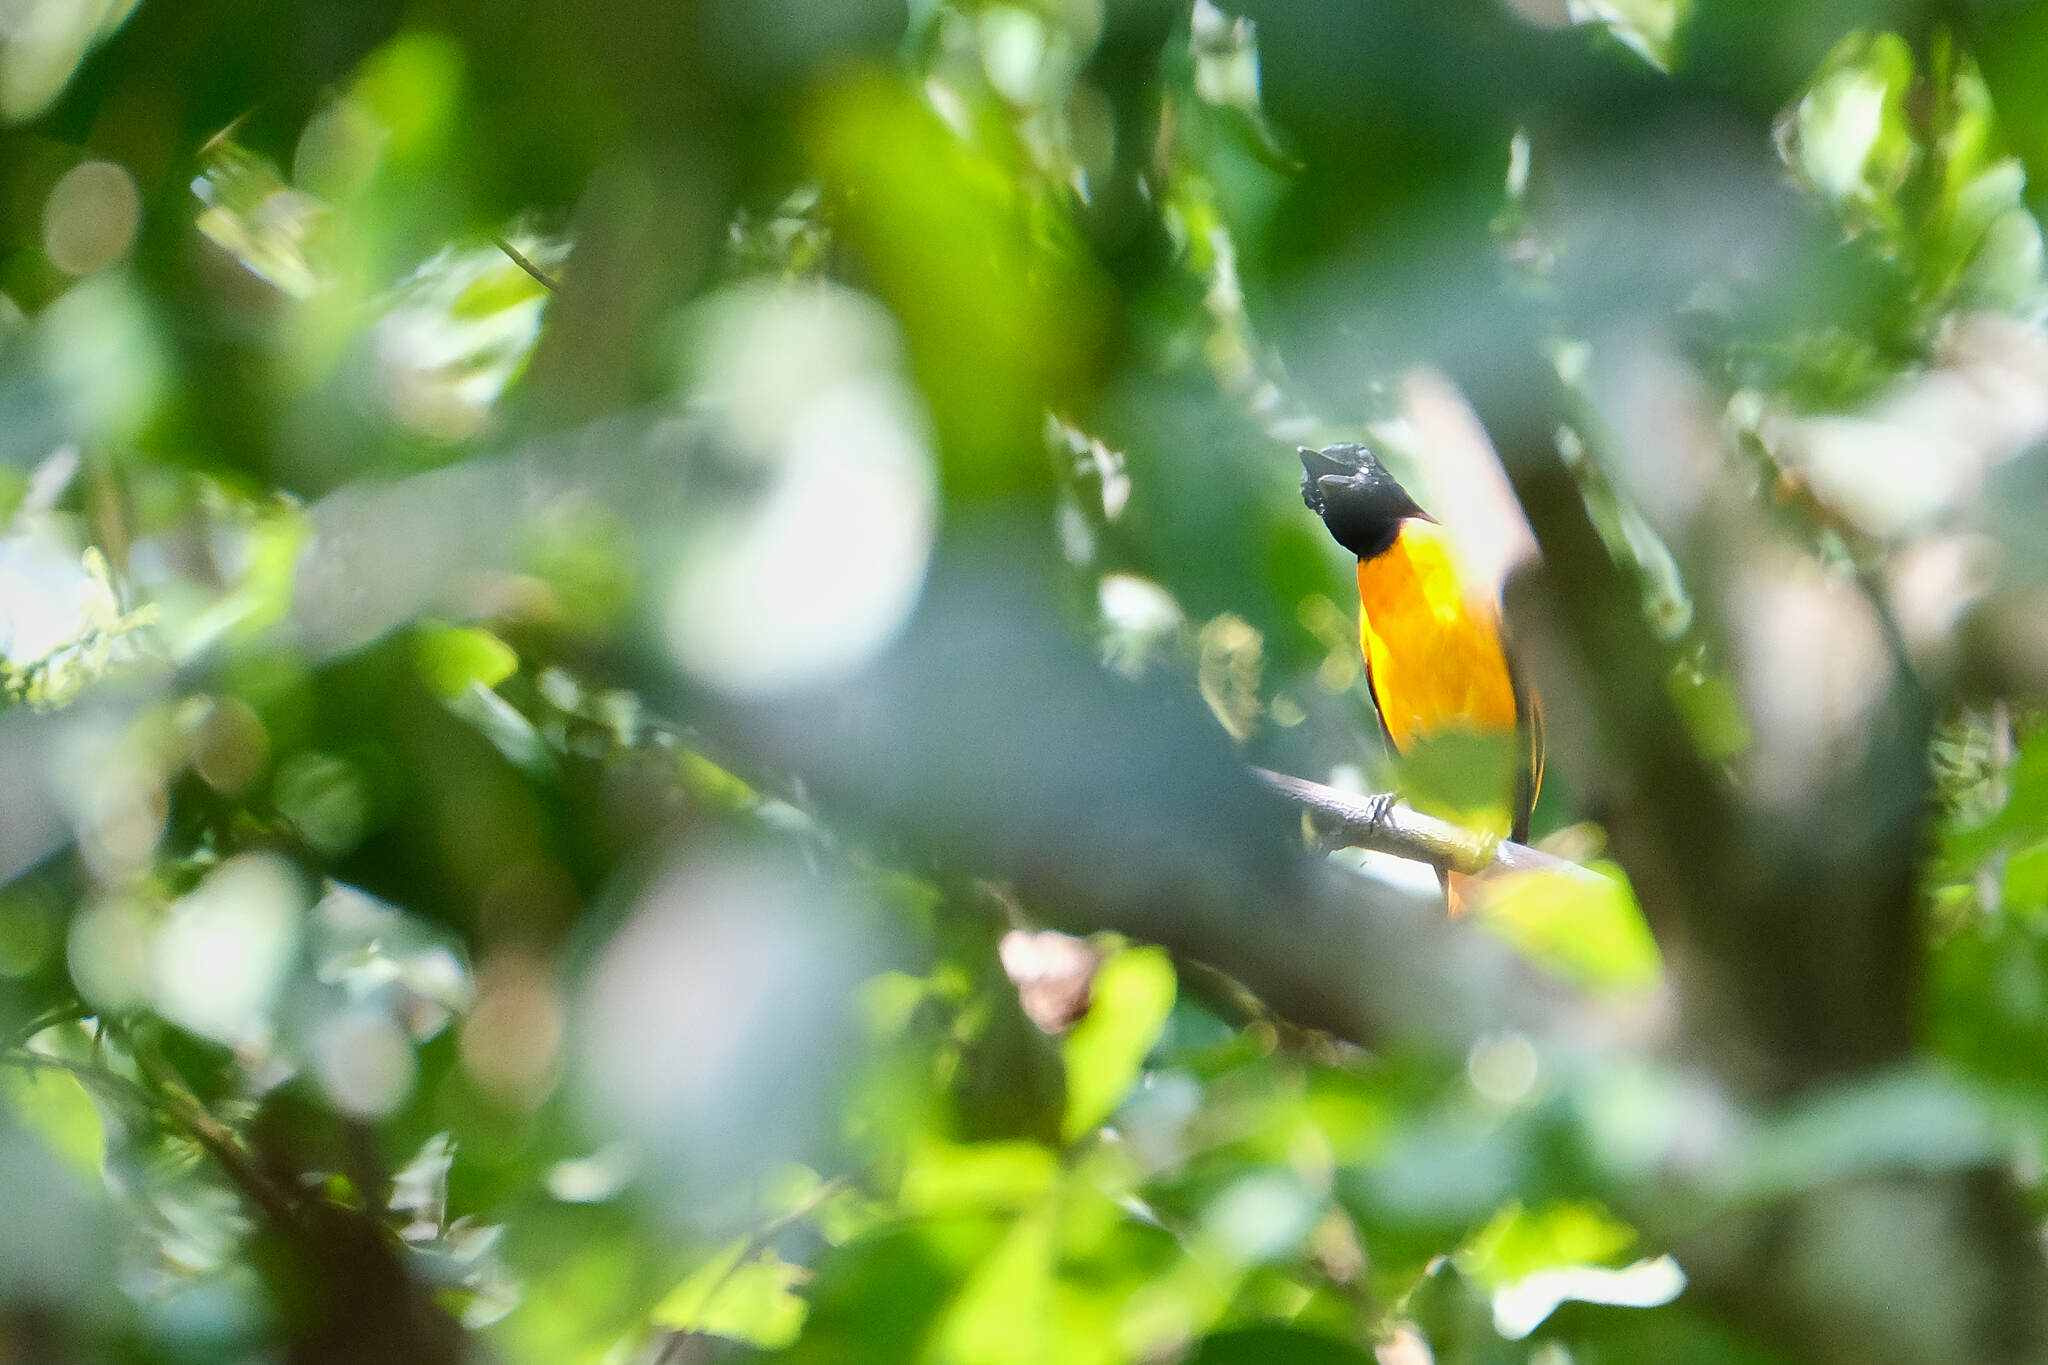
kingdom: Animalia
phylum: Chordata
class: Aves
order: Passeriformes
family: Campephagidae
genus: Pericrocotus
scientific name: Pericrocotus cinnamomeus
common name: Small minivet
